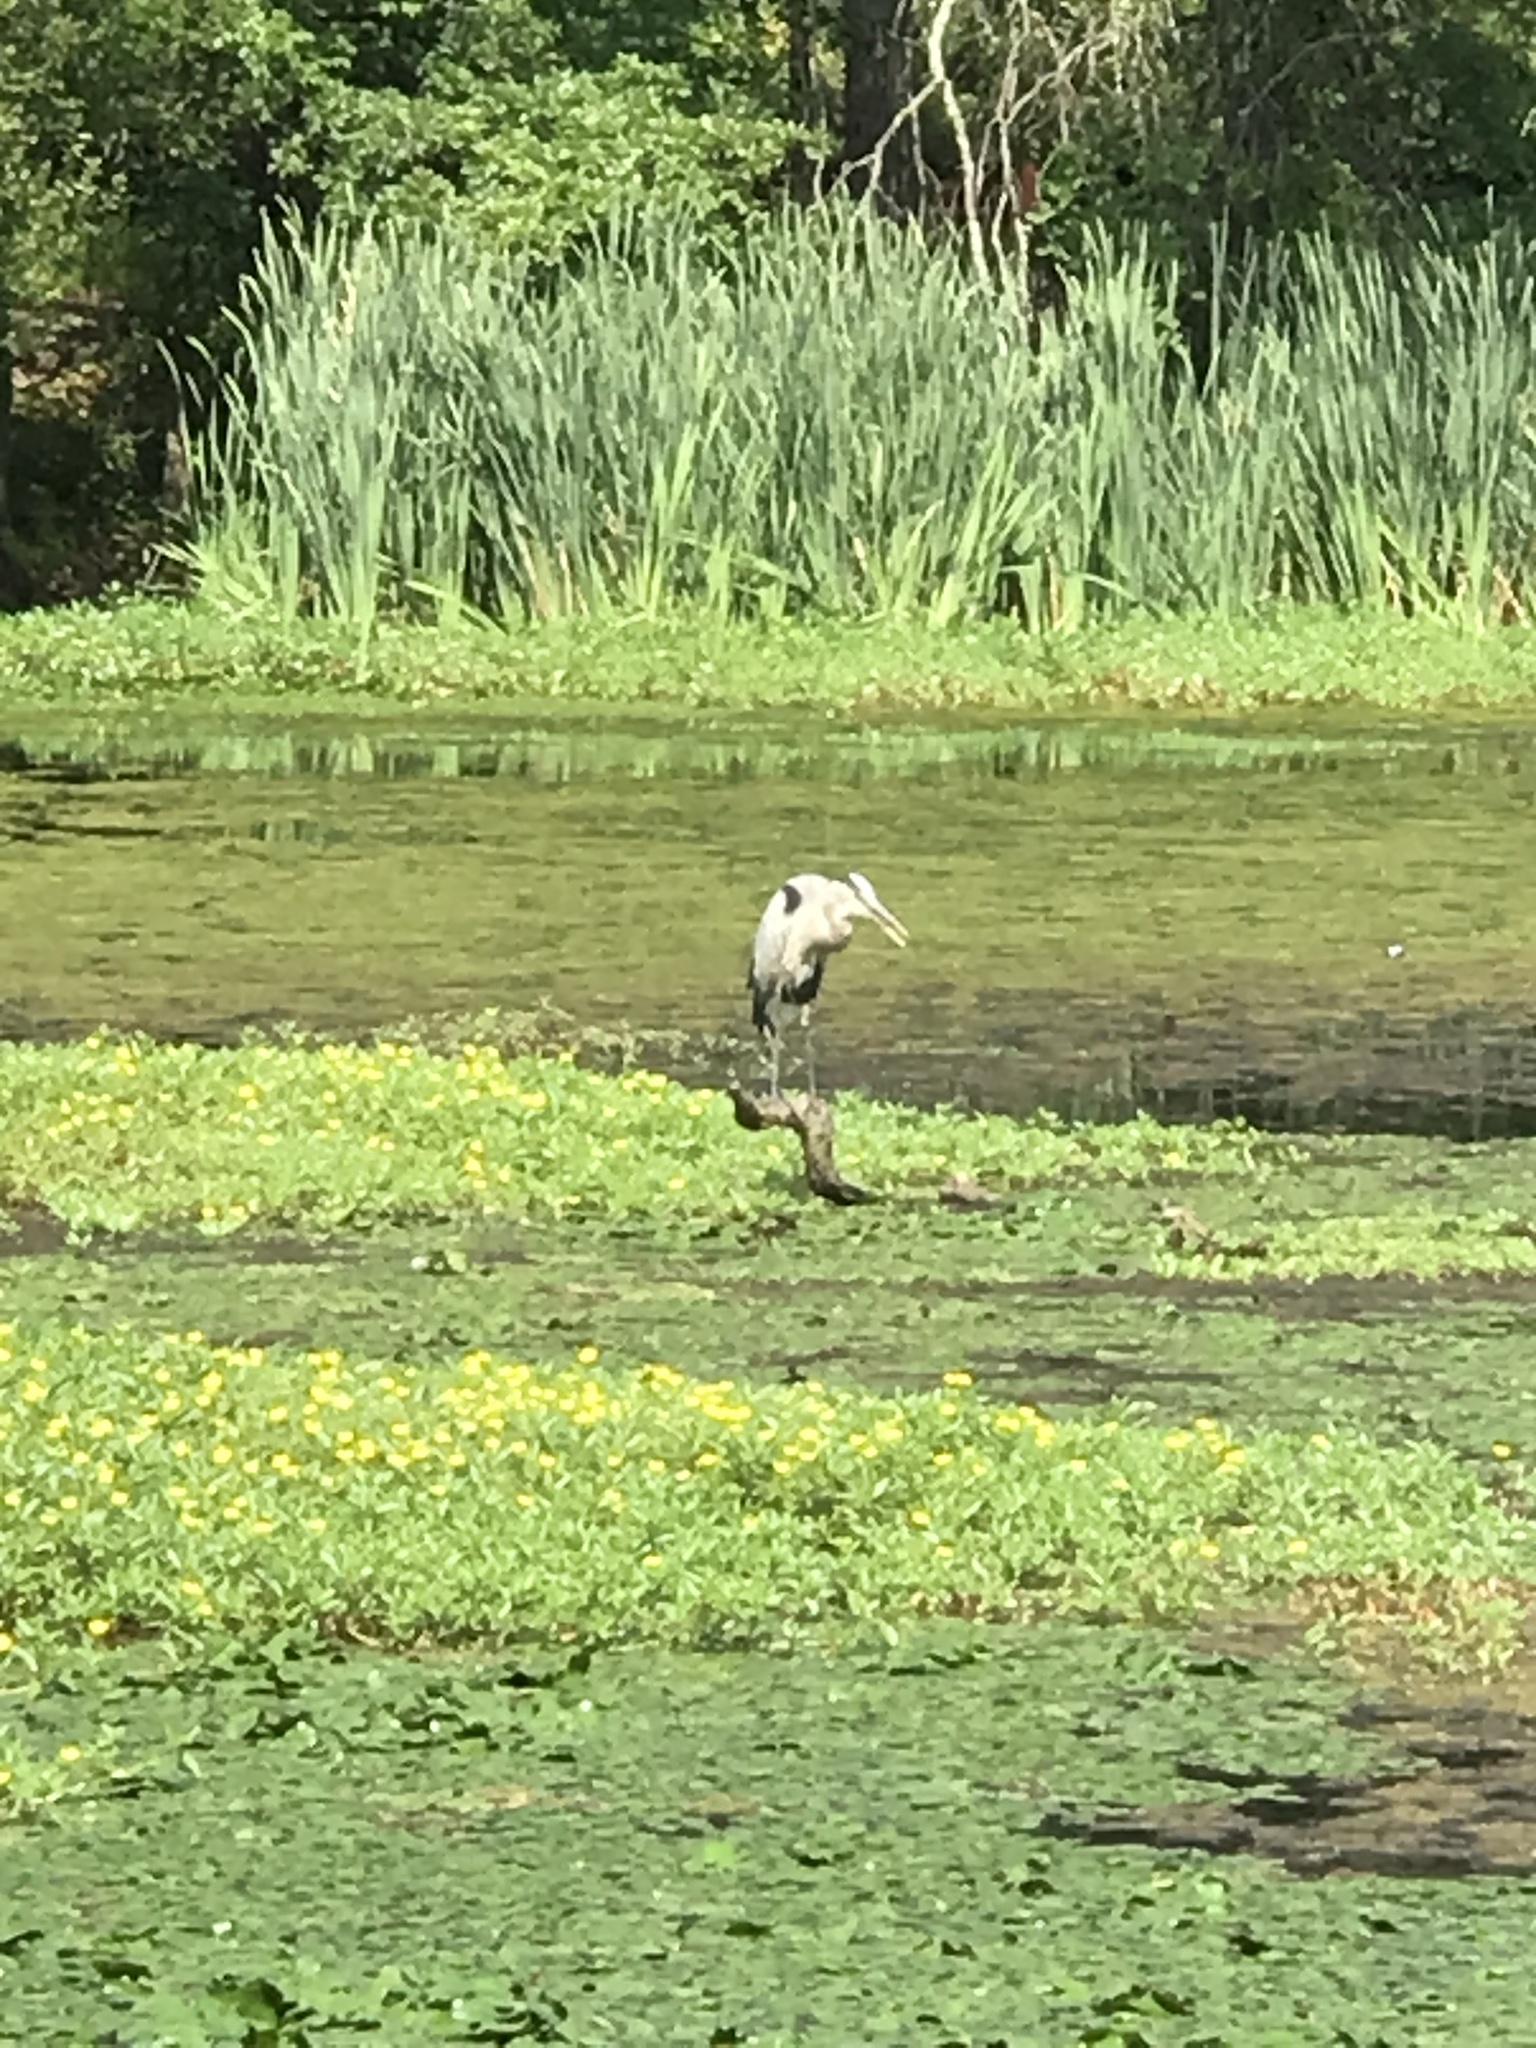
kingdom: Animalia
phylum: Chordata
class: Aves
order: Pelecaniformes
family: Ardeidae
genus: Ardea
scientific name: Ardea herodias
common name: Great blue heron
